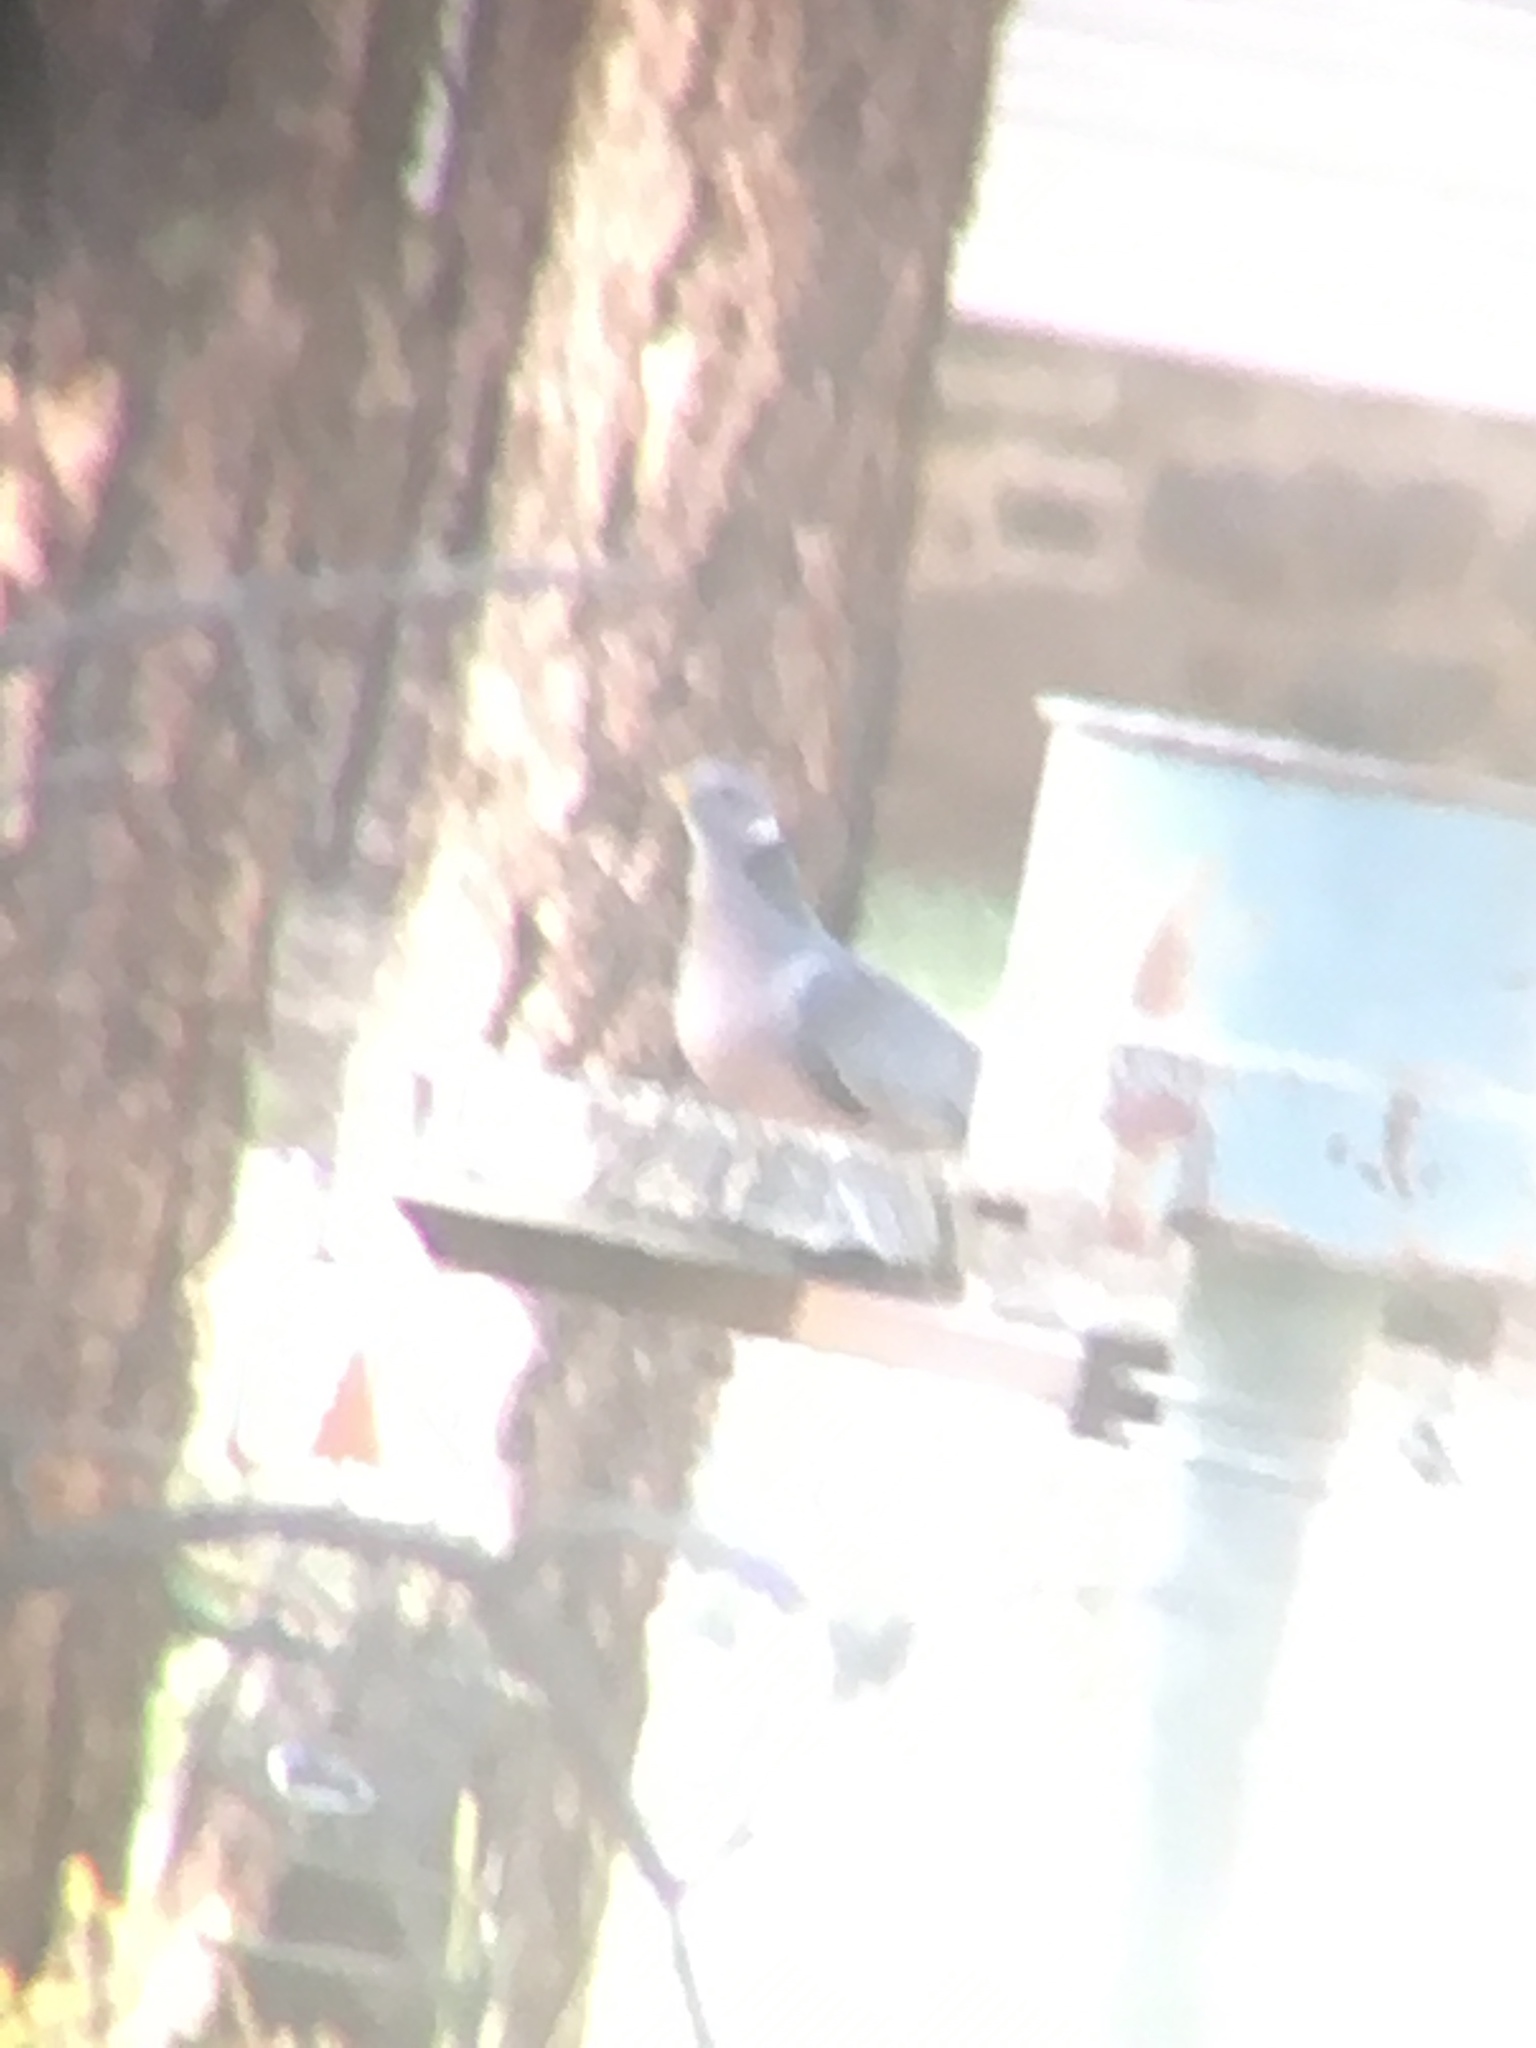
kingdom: Animalia
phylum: Chordata
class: Aves
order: Columbiformes
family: Columbidae
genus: Patagioenas
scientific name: Patagioenas fasciata
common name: Band-tailed pigeon
